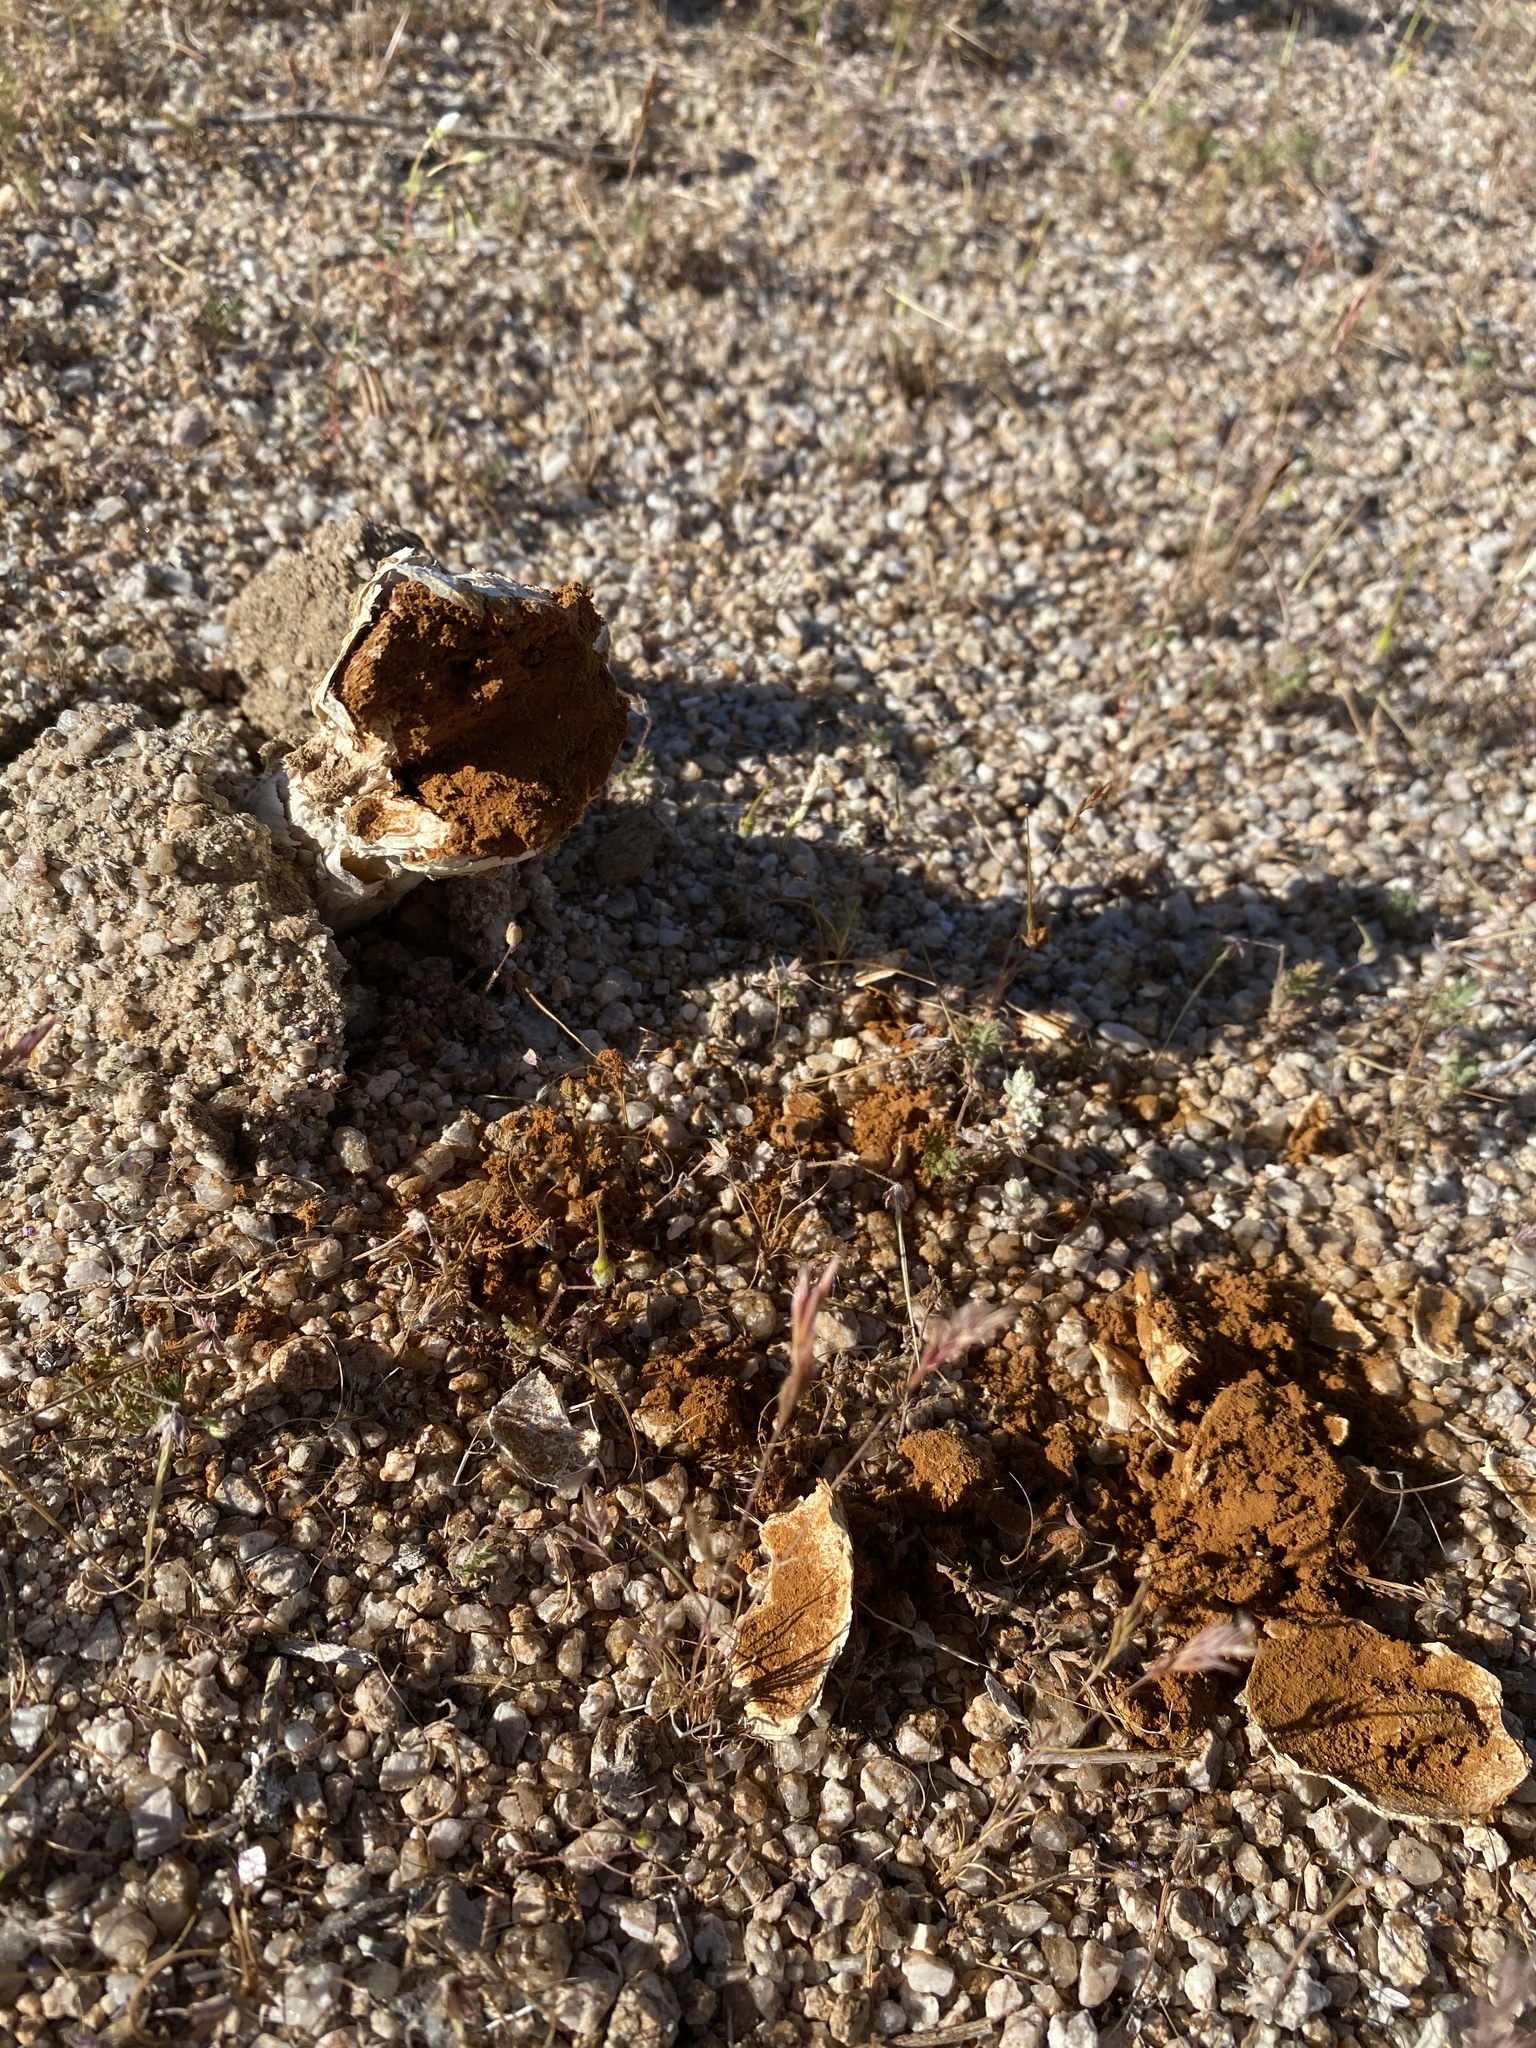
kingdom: Fungi
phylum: Basidiomycota
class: Agaricomycetes
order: Agaricales
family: Agaricaceae
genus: Agaricus
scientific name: Agaricus deserticola
